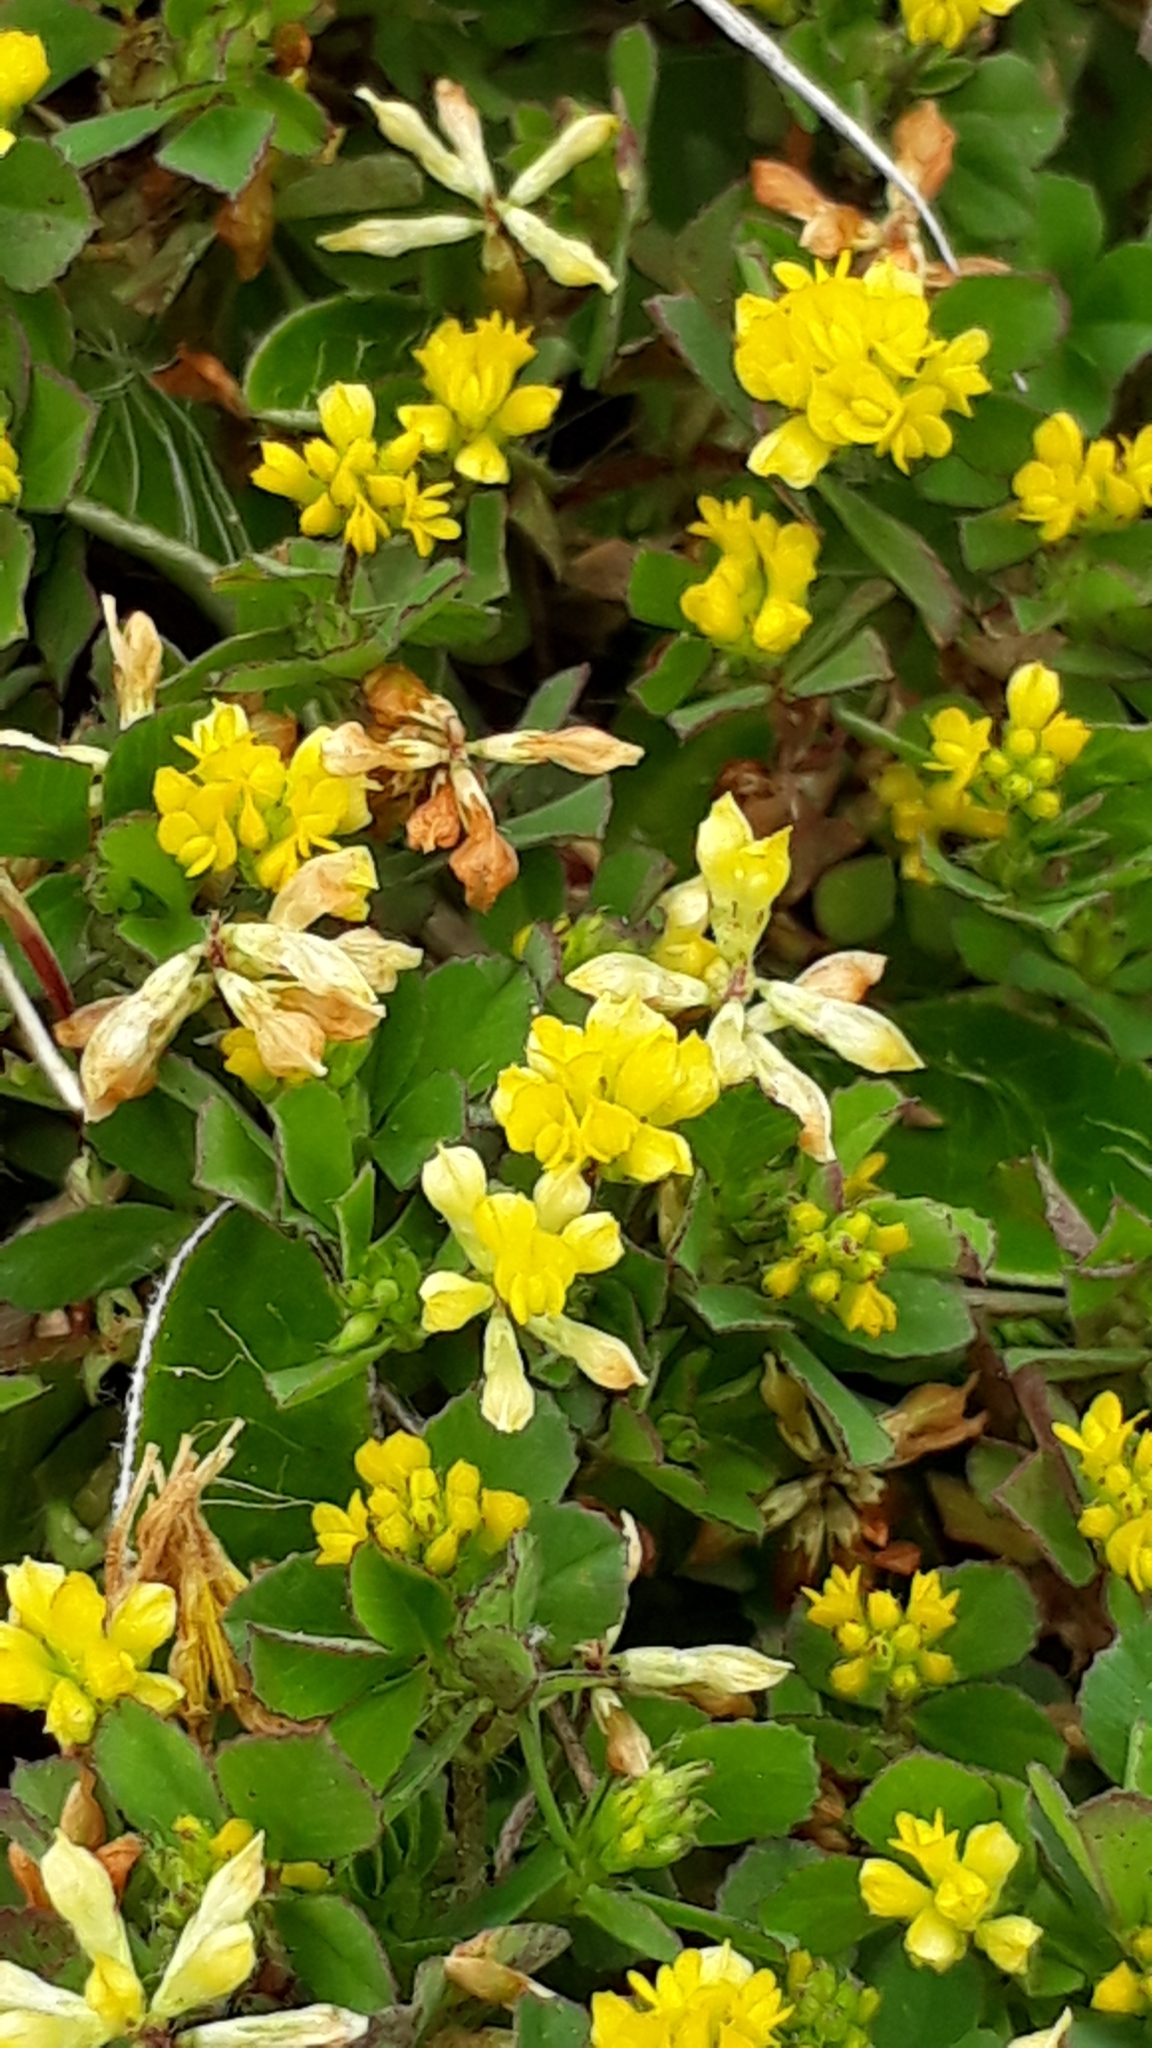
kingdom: Plantae
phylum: Tracheophyta
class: Magnoliopsida
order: Fabales
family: Fabaceae
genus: Trifolium
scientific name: Trifolium dubium
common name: Suckling clover
